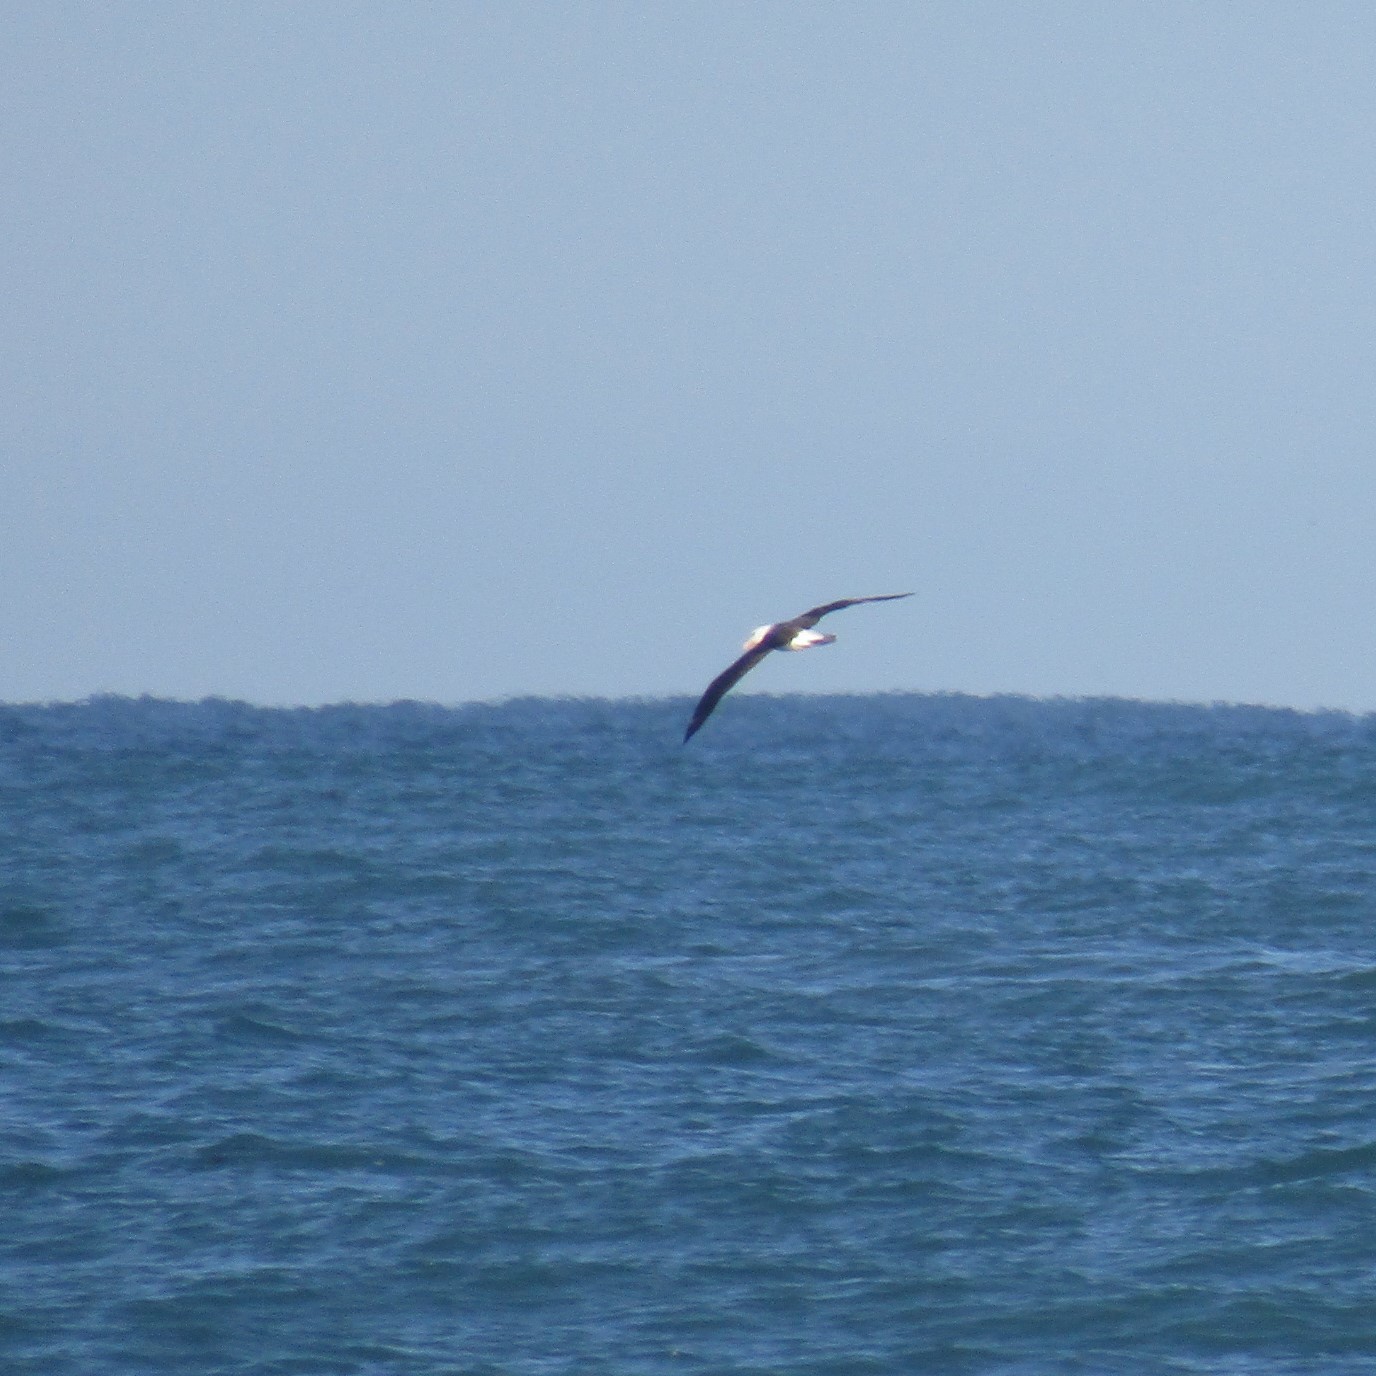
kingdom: Animalia
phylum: Chordata
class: Aves
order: Procellariiformes
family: Diomedeidae
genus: Thalassarche
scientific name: Thalassarche melanophris
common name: Black-browed albatross
